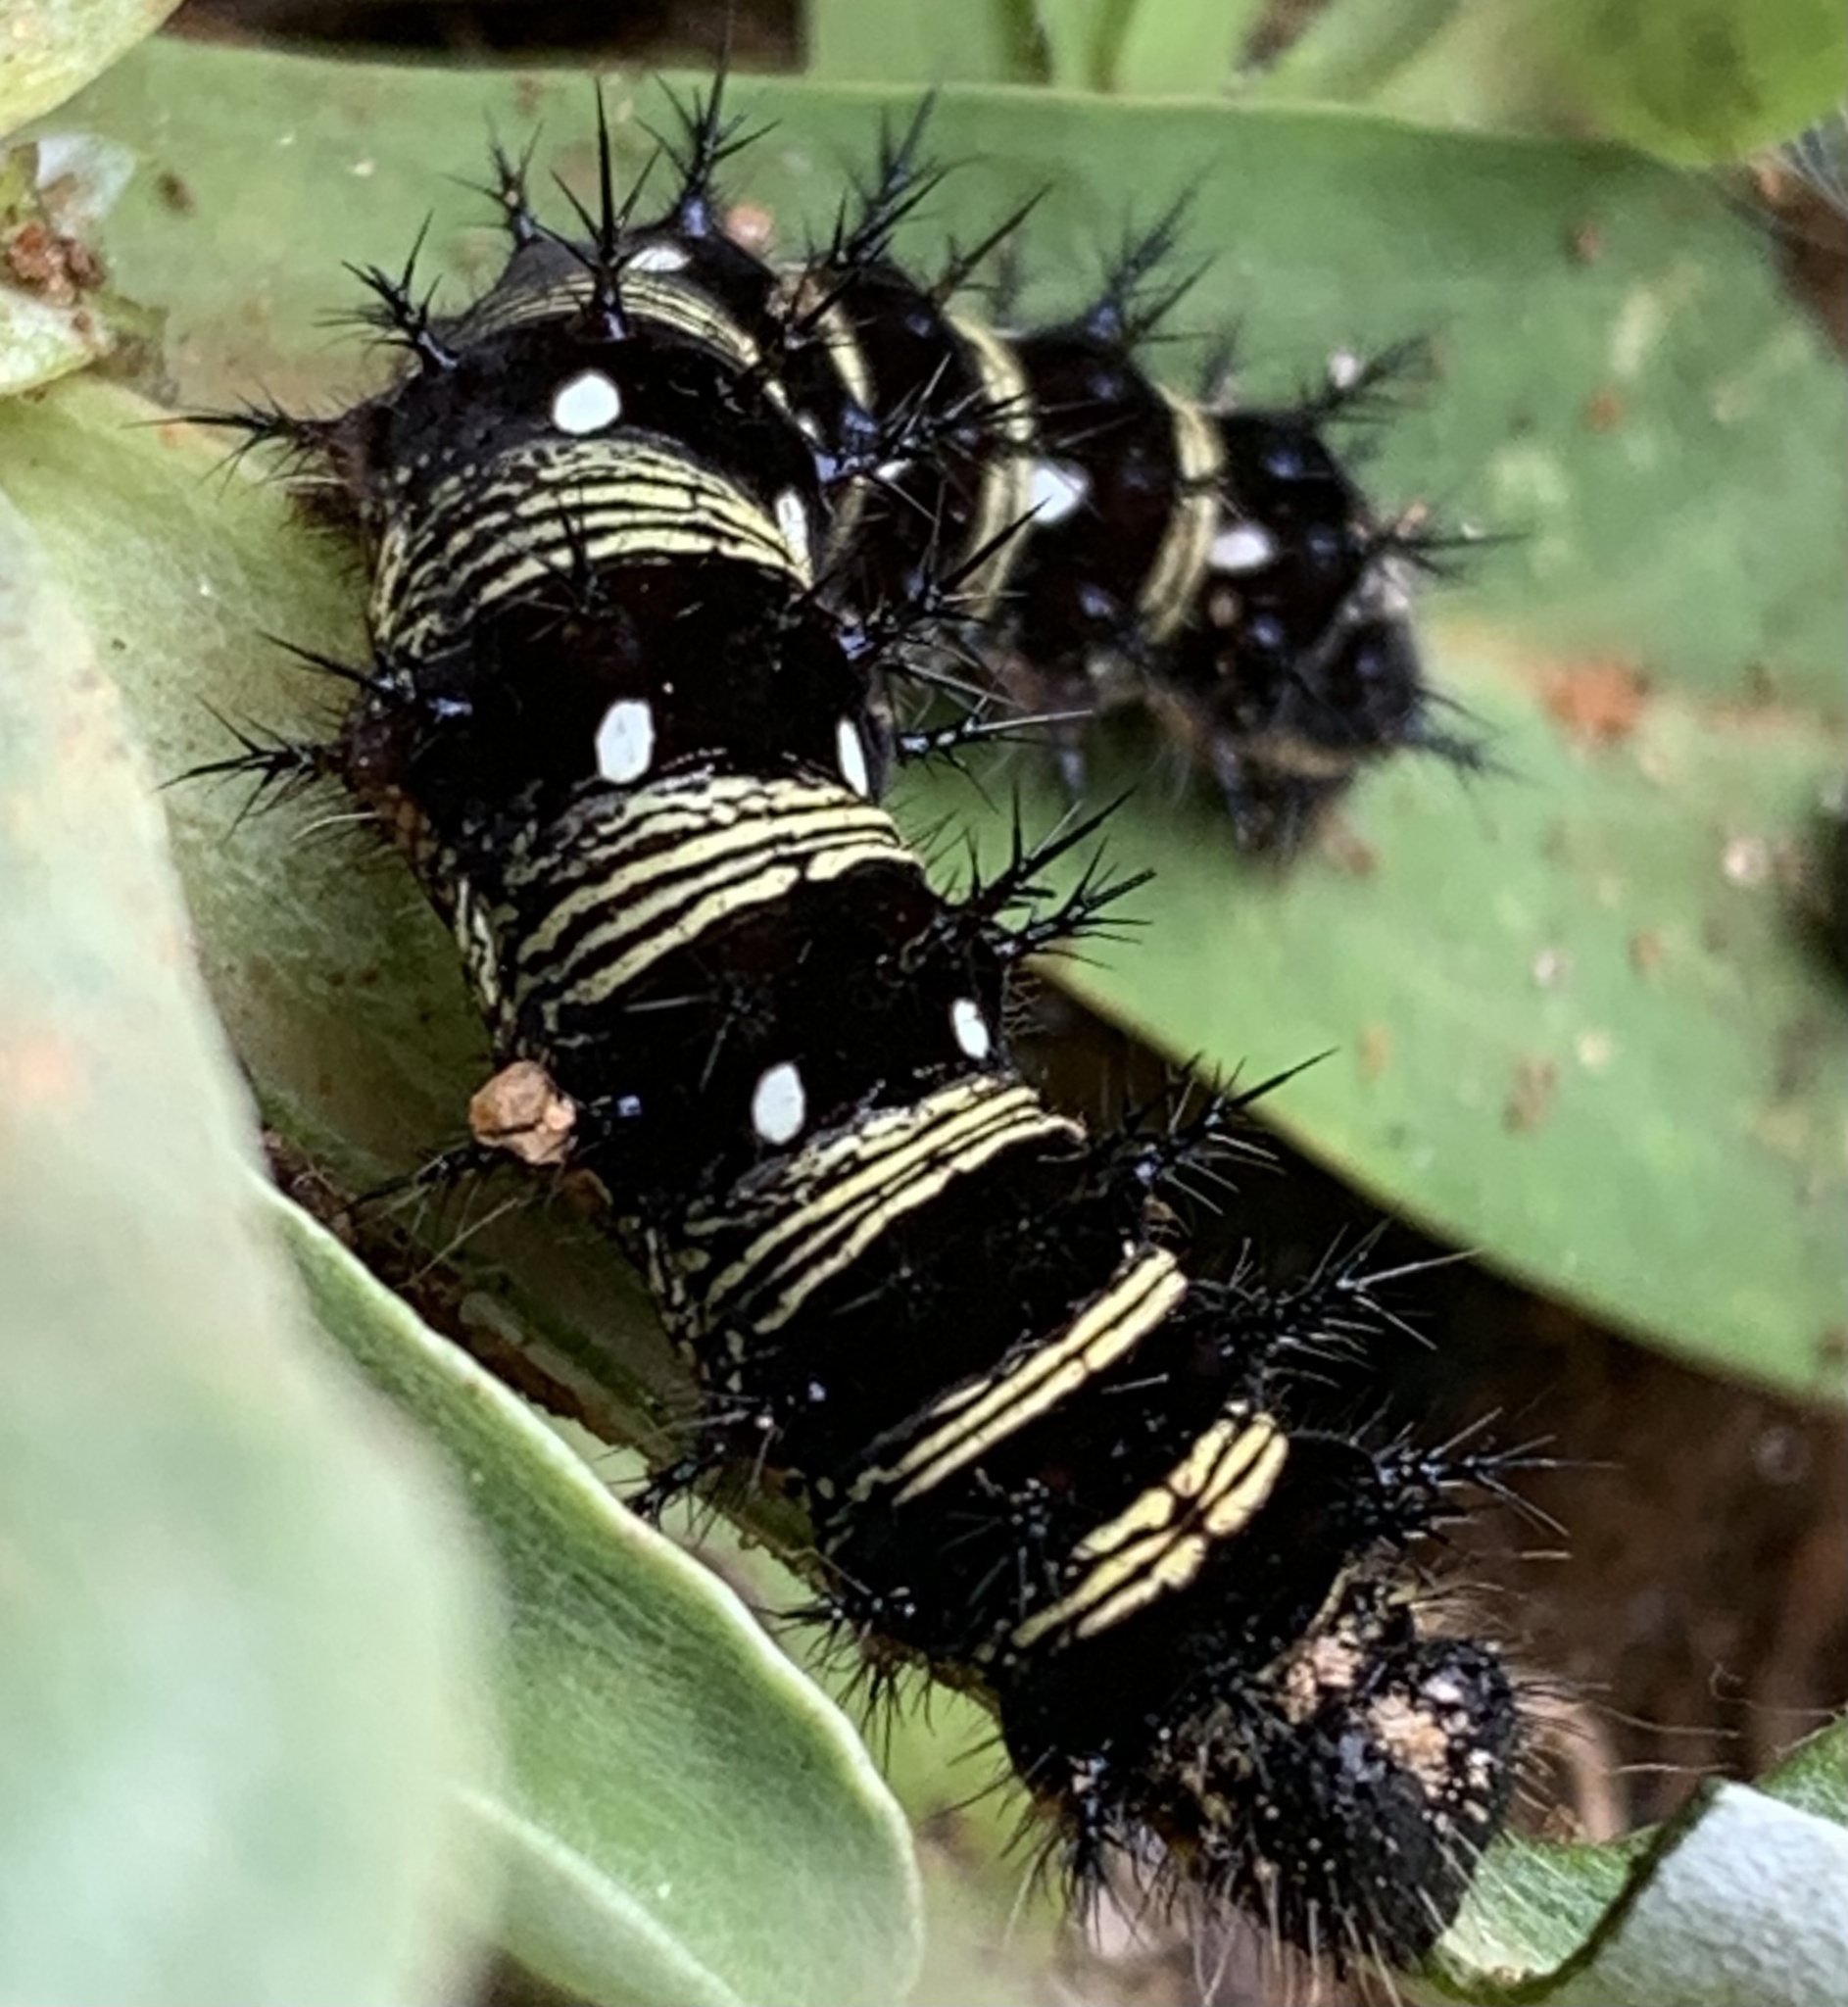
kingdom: Animalia
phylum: Arthropoda
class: Insecta
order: Lepidoptera
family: Nymphalidae
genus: Vanessa
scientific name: Vanessa virginiensis
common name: American lady
